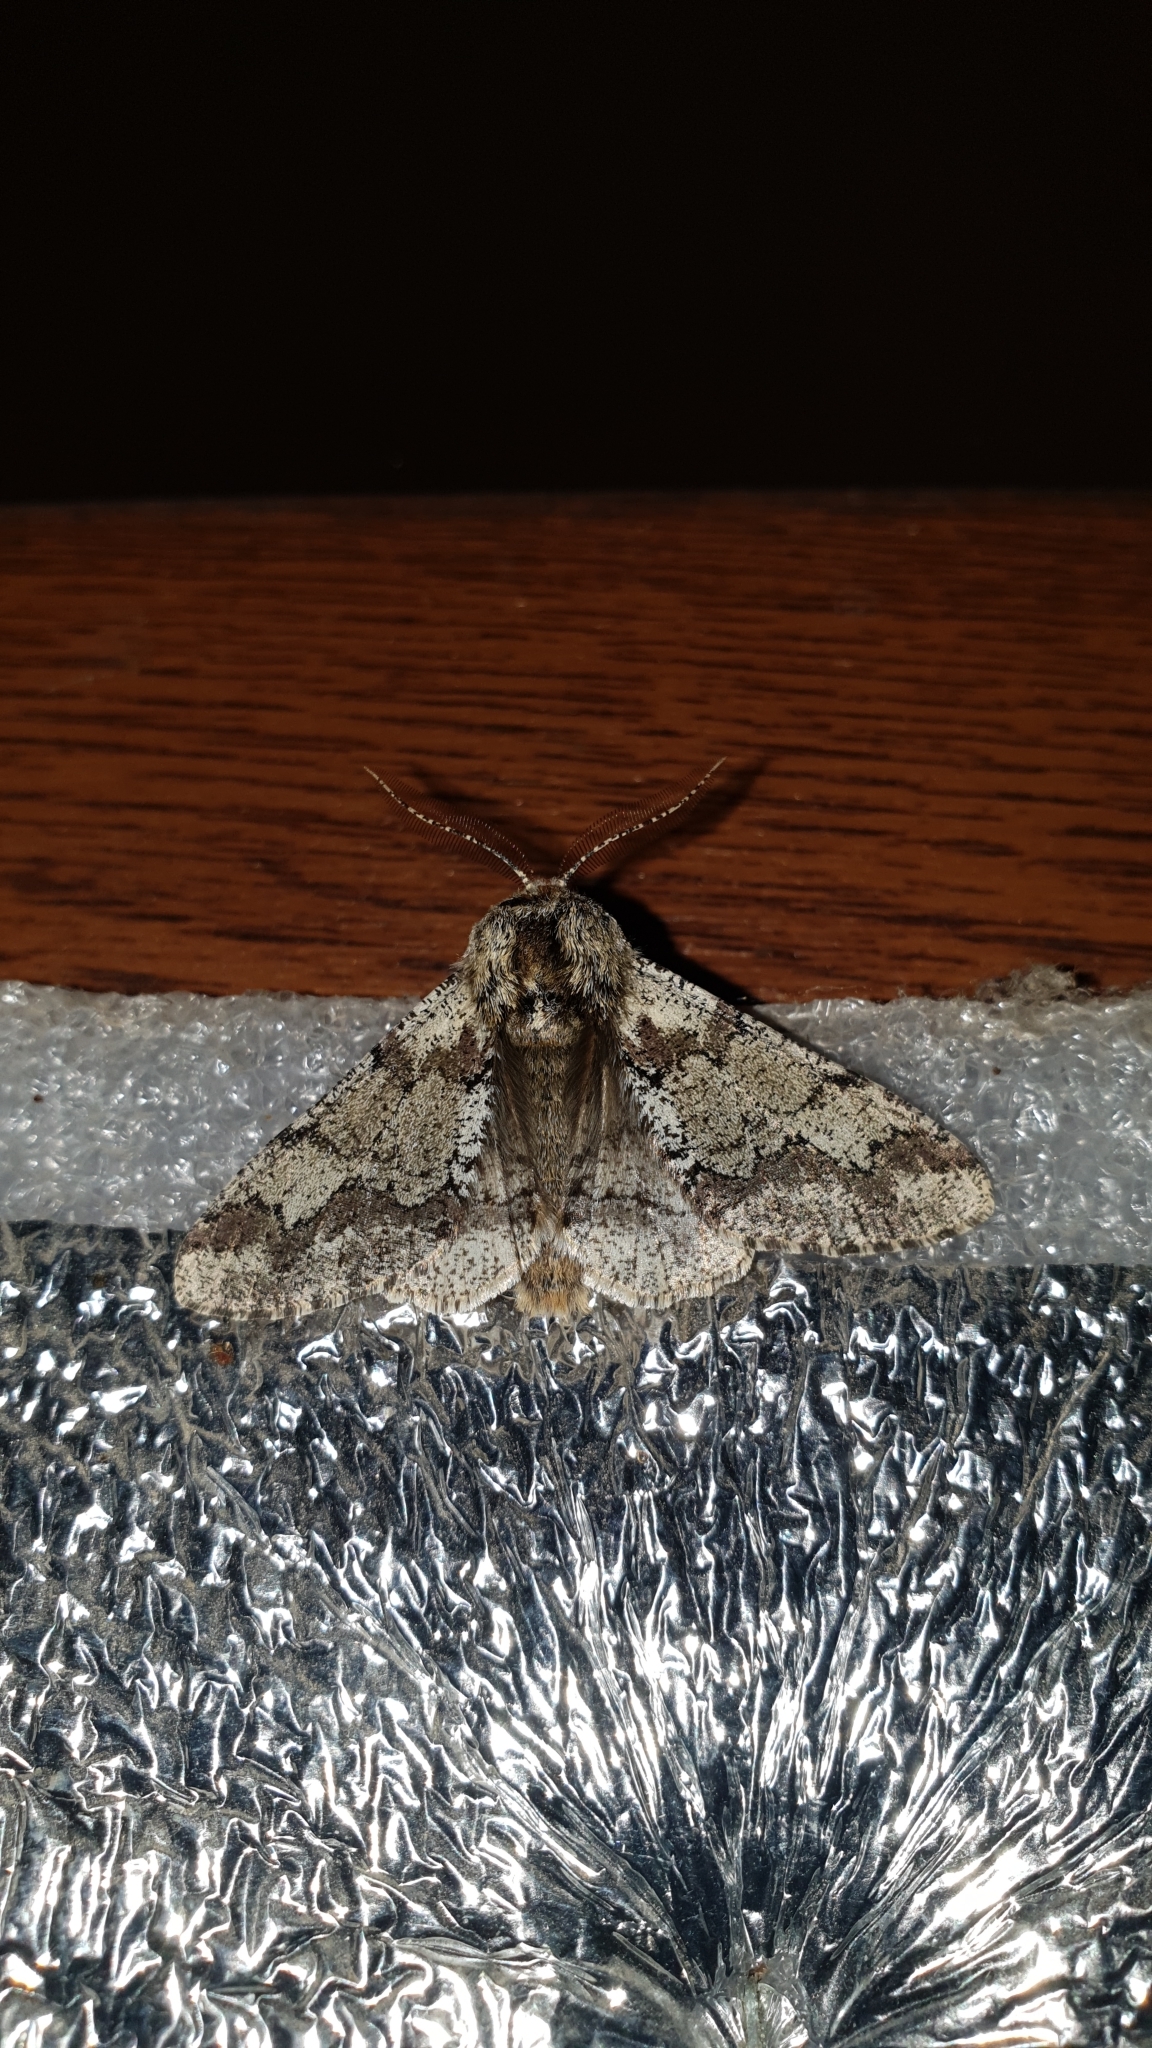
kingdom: Animalia
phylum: Arthropoda
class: Insecta
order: Lepidoptera
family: Geometridae
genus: Biston
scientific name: Biston strataria
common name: Oak beauty
